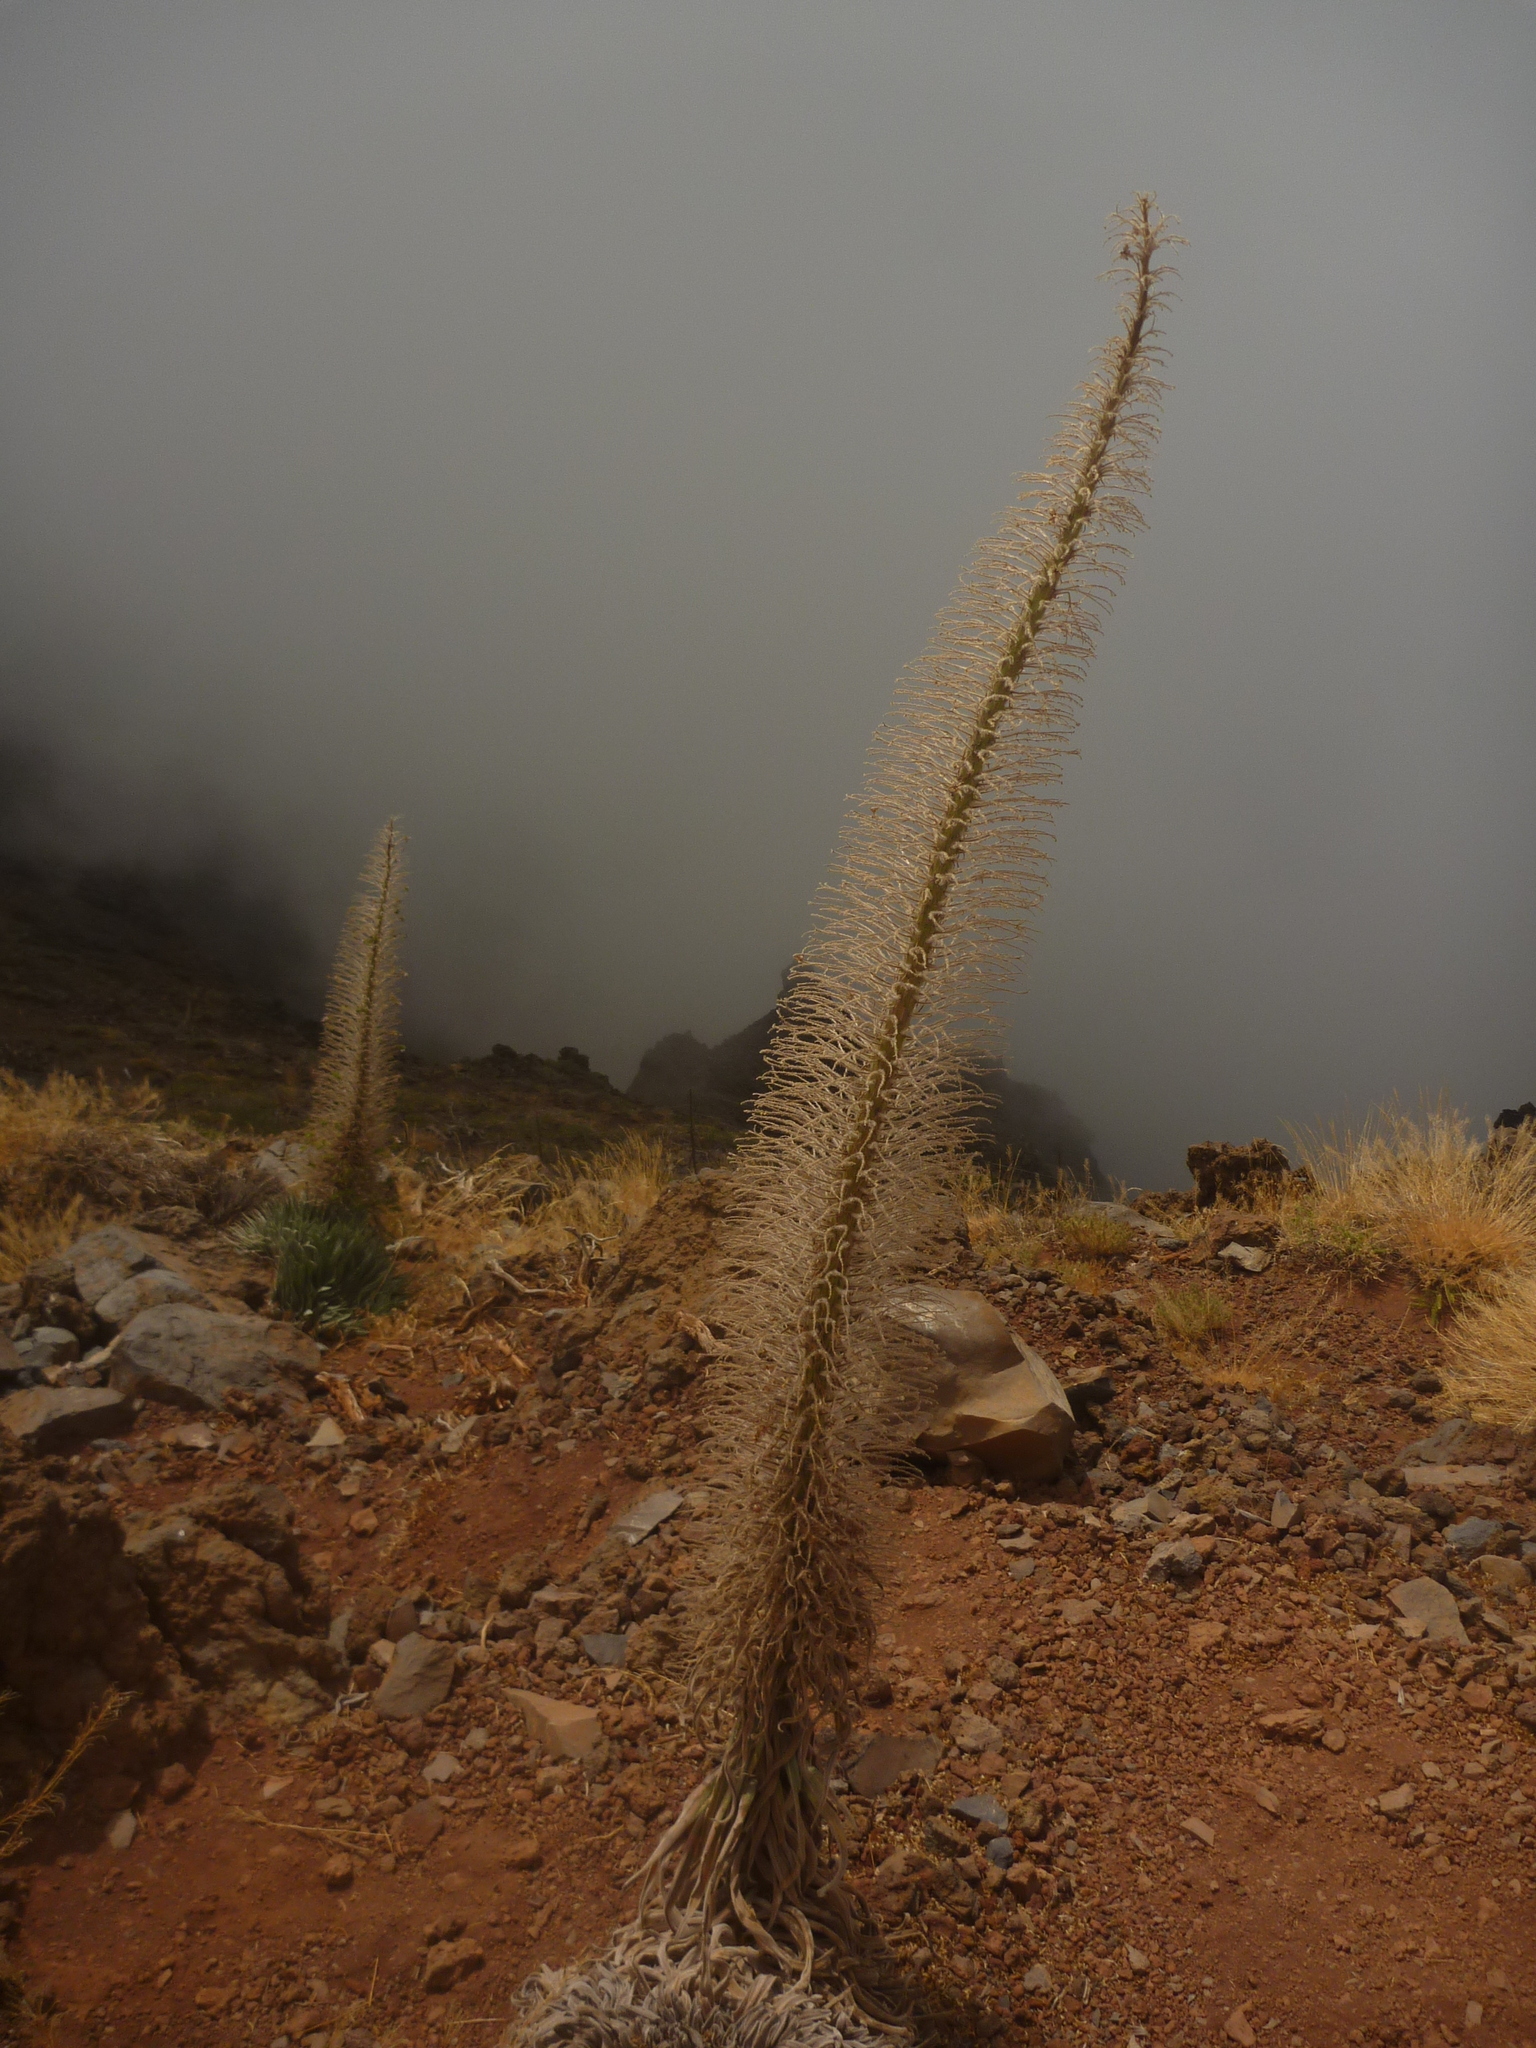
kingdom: Plantae
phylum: Tracheophyta
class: Magnoliopsida
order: Boraginales
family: Boraginaceae
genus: Echium
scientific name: Echium perezii
